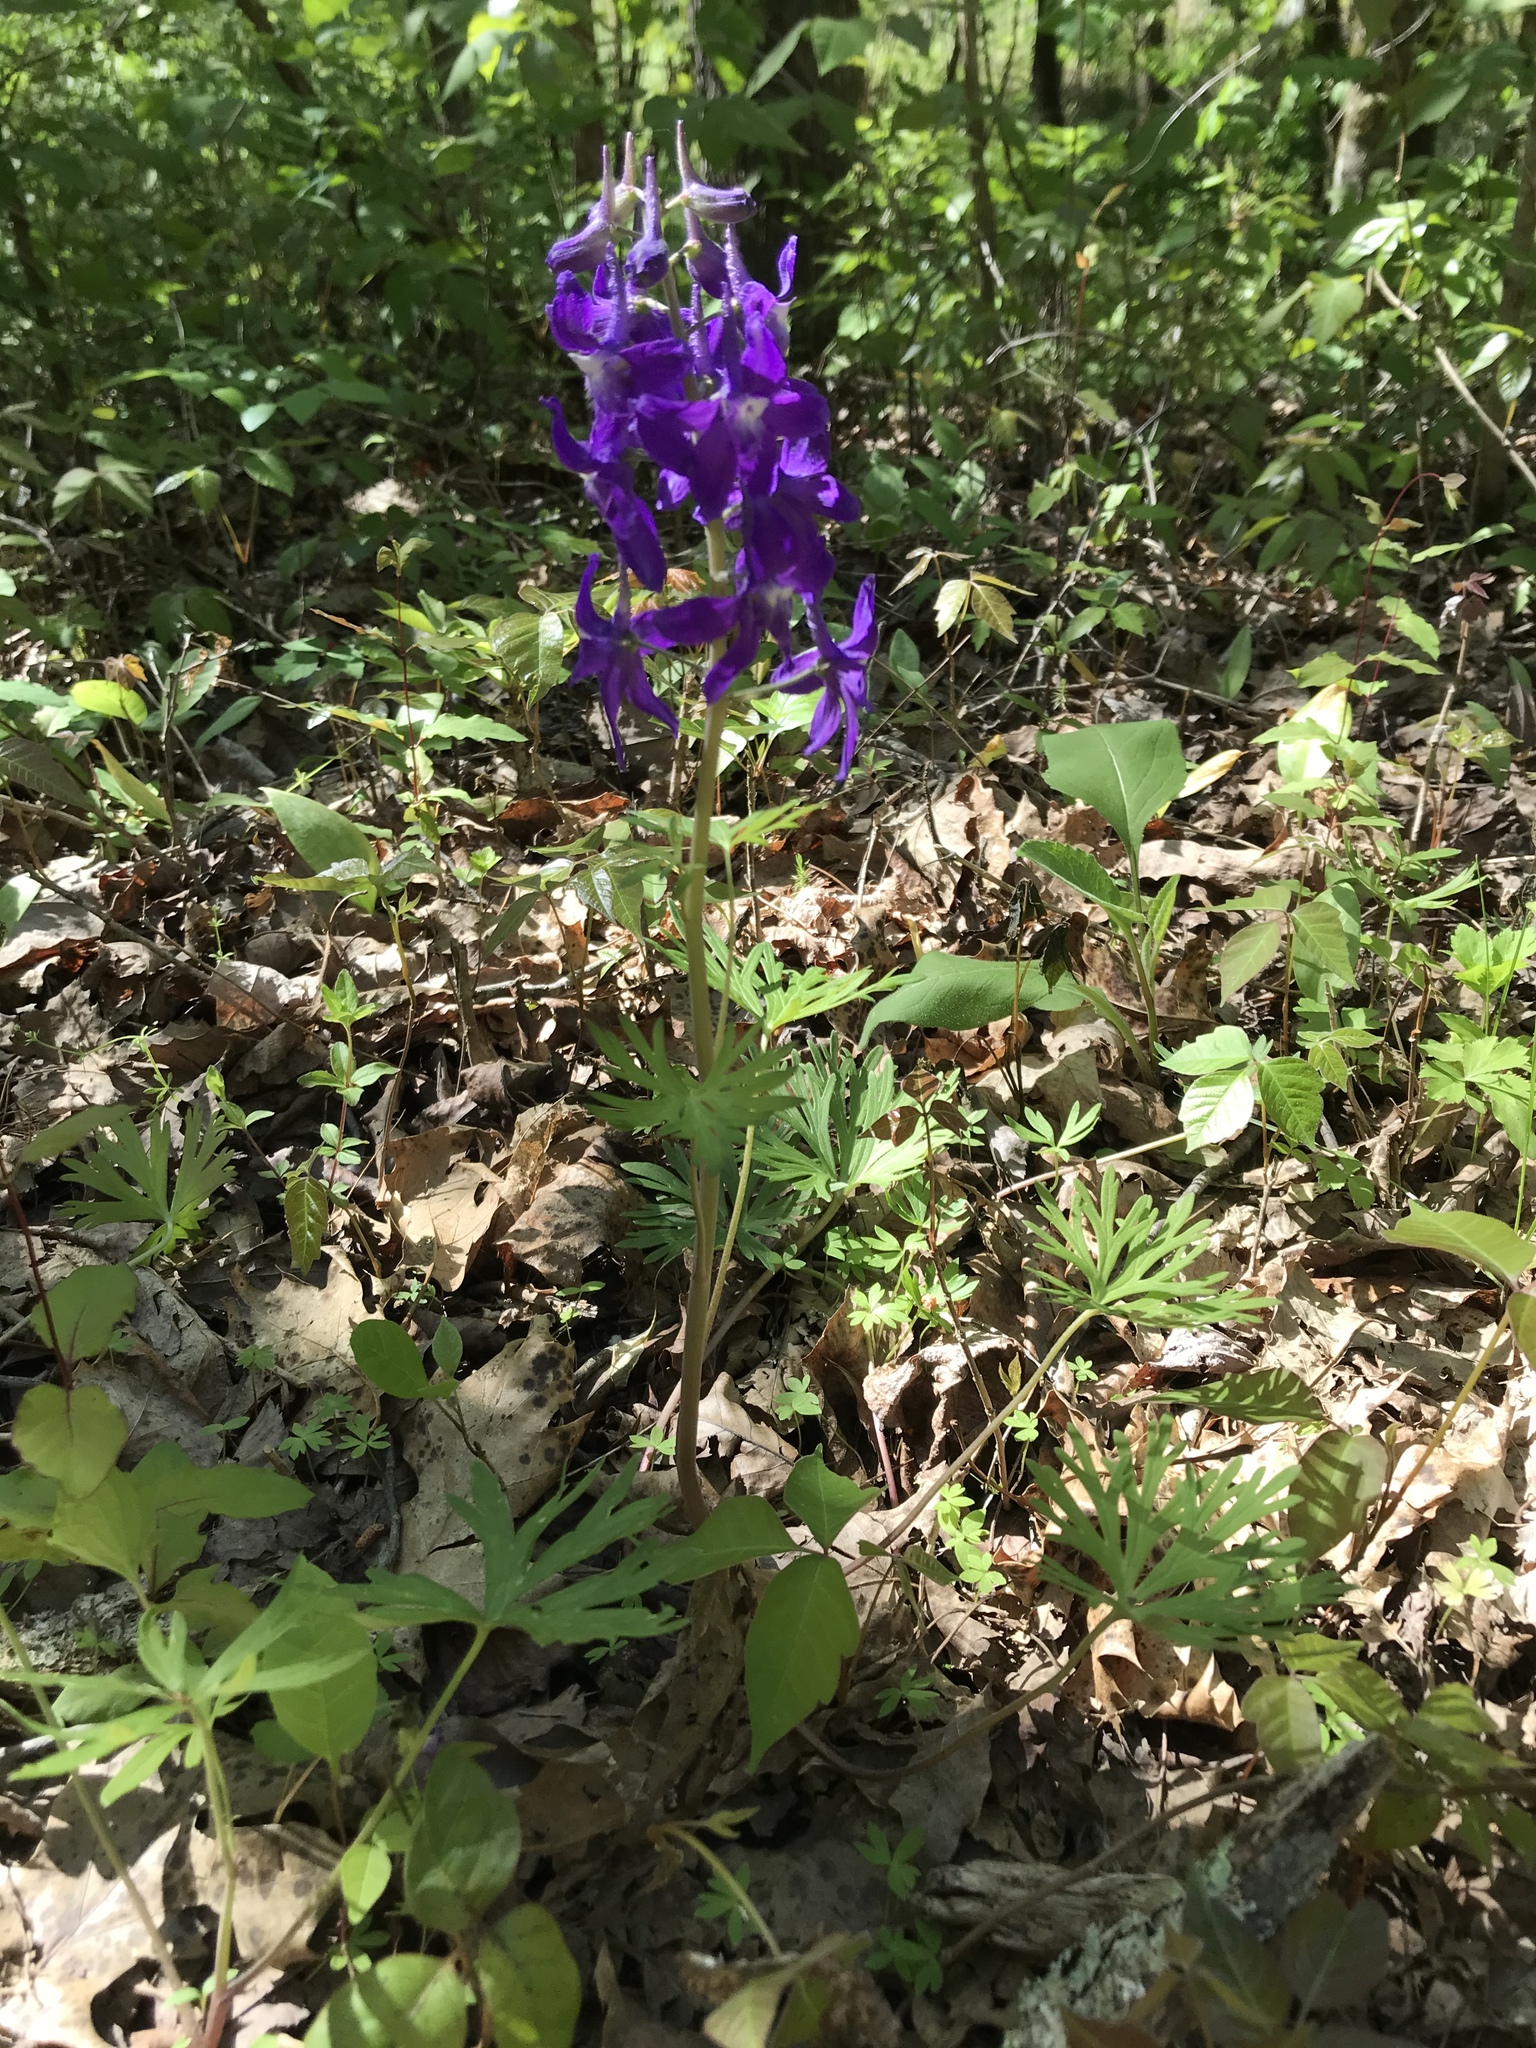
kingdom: Plantae
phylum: Tracheophyta
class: Magnoliopsida
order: Ranunculales
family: Ranunculaceae
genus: Delphinium
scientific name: Delphinium tricorne
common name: Dwarf larkspur
